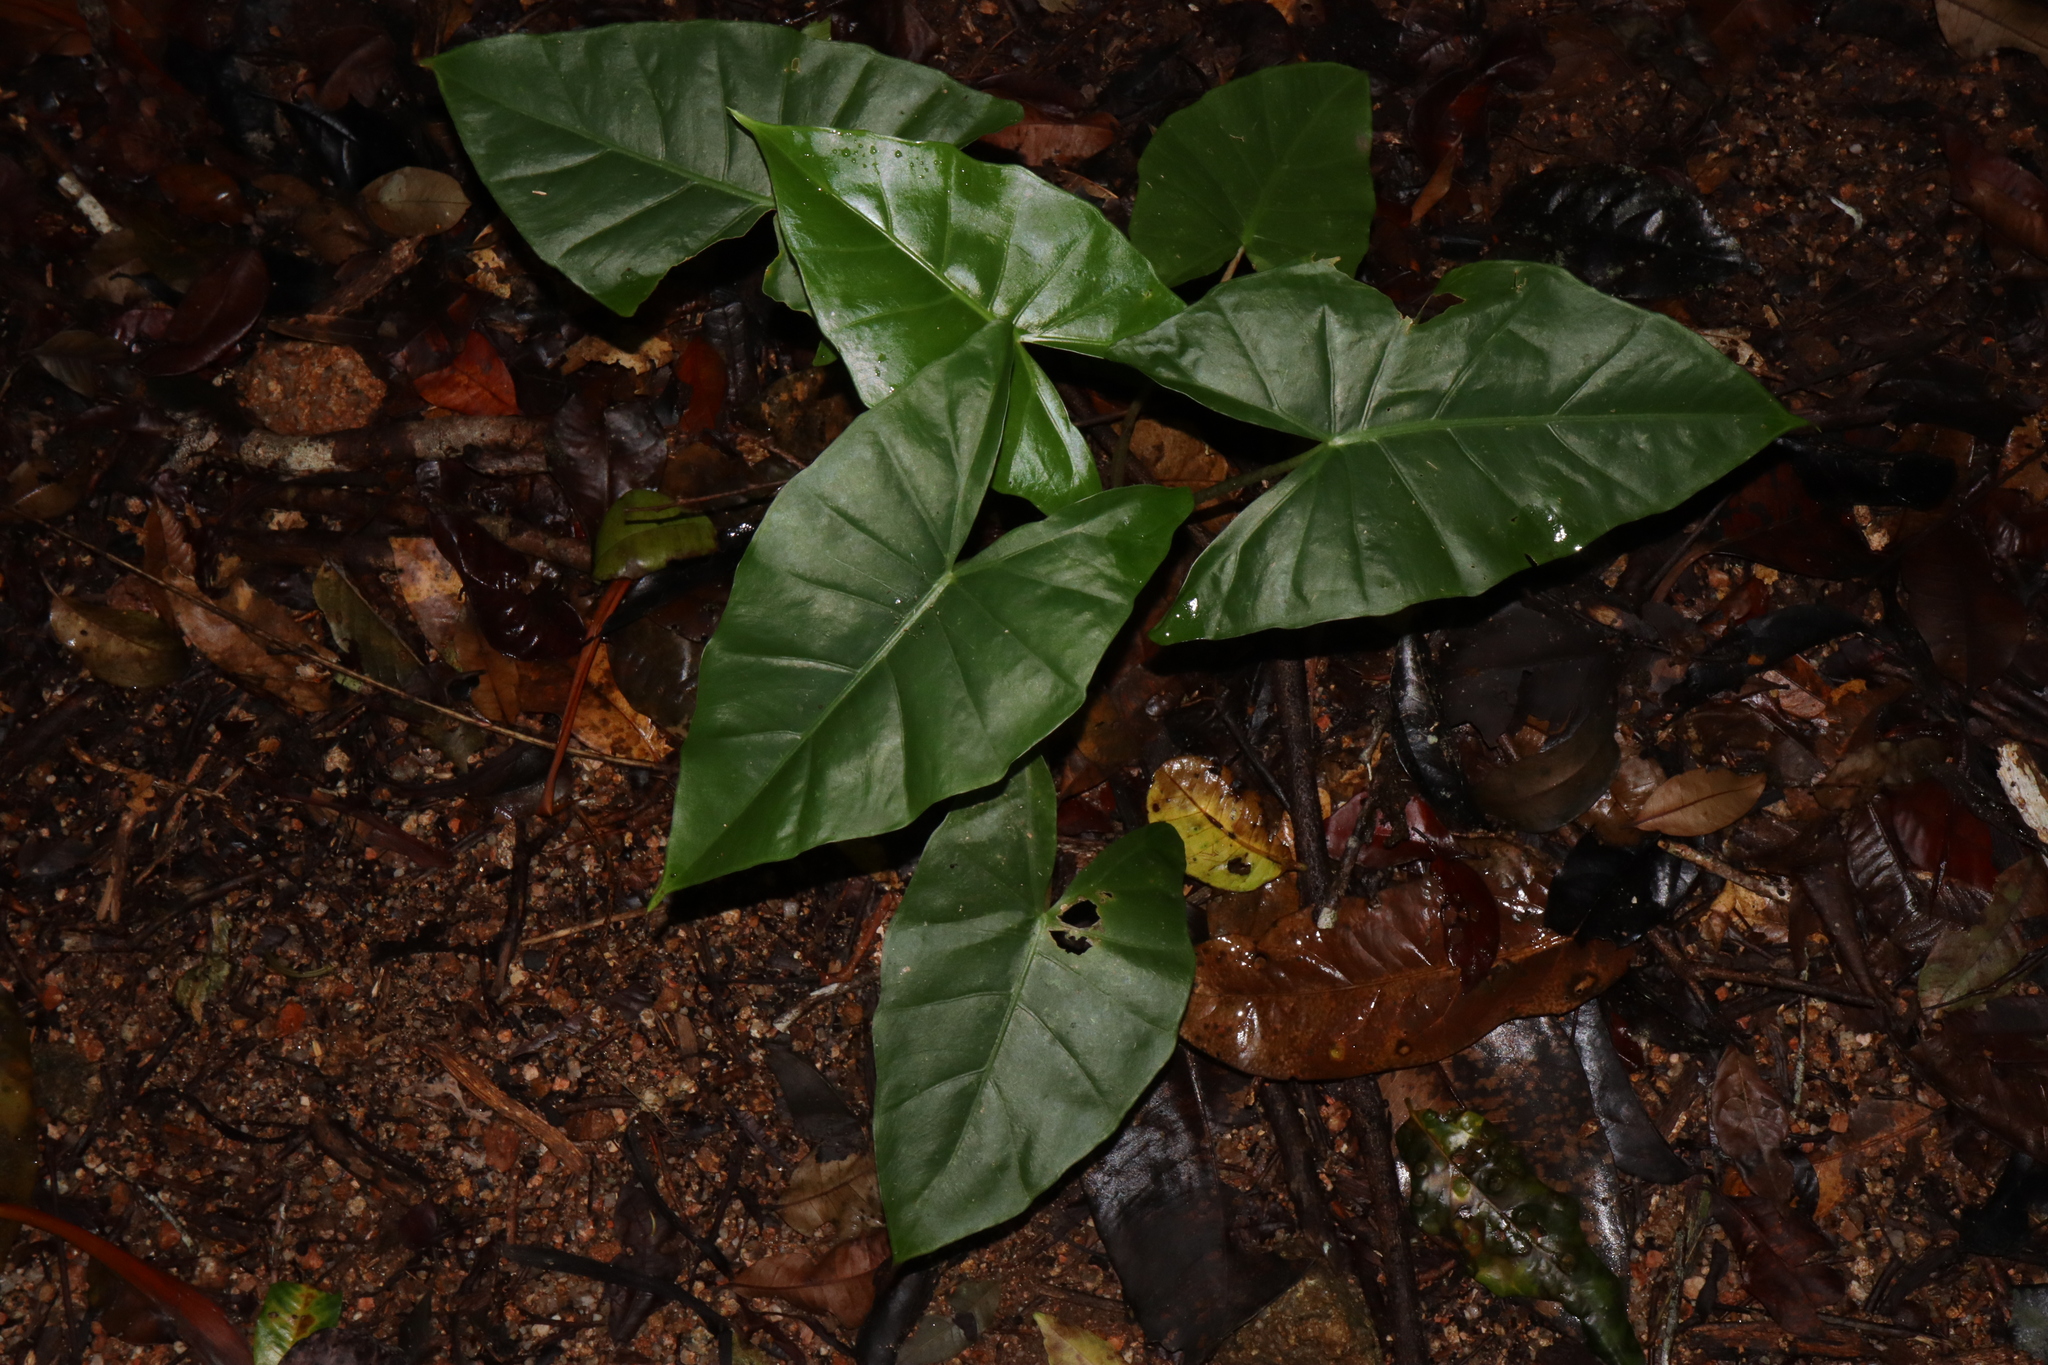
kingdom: Plantae
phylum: Tracheophyta
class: Liliopsida
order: Alismatales
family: Araceae
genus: Alocasia
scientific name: Alocasia brisbanensis
